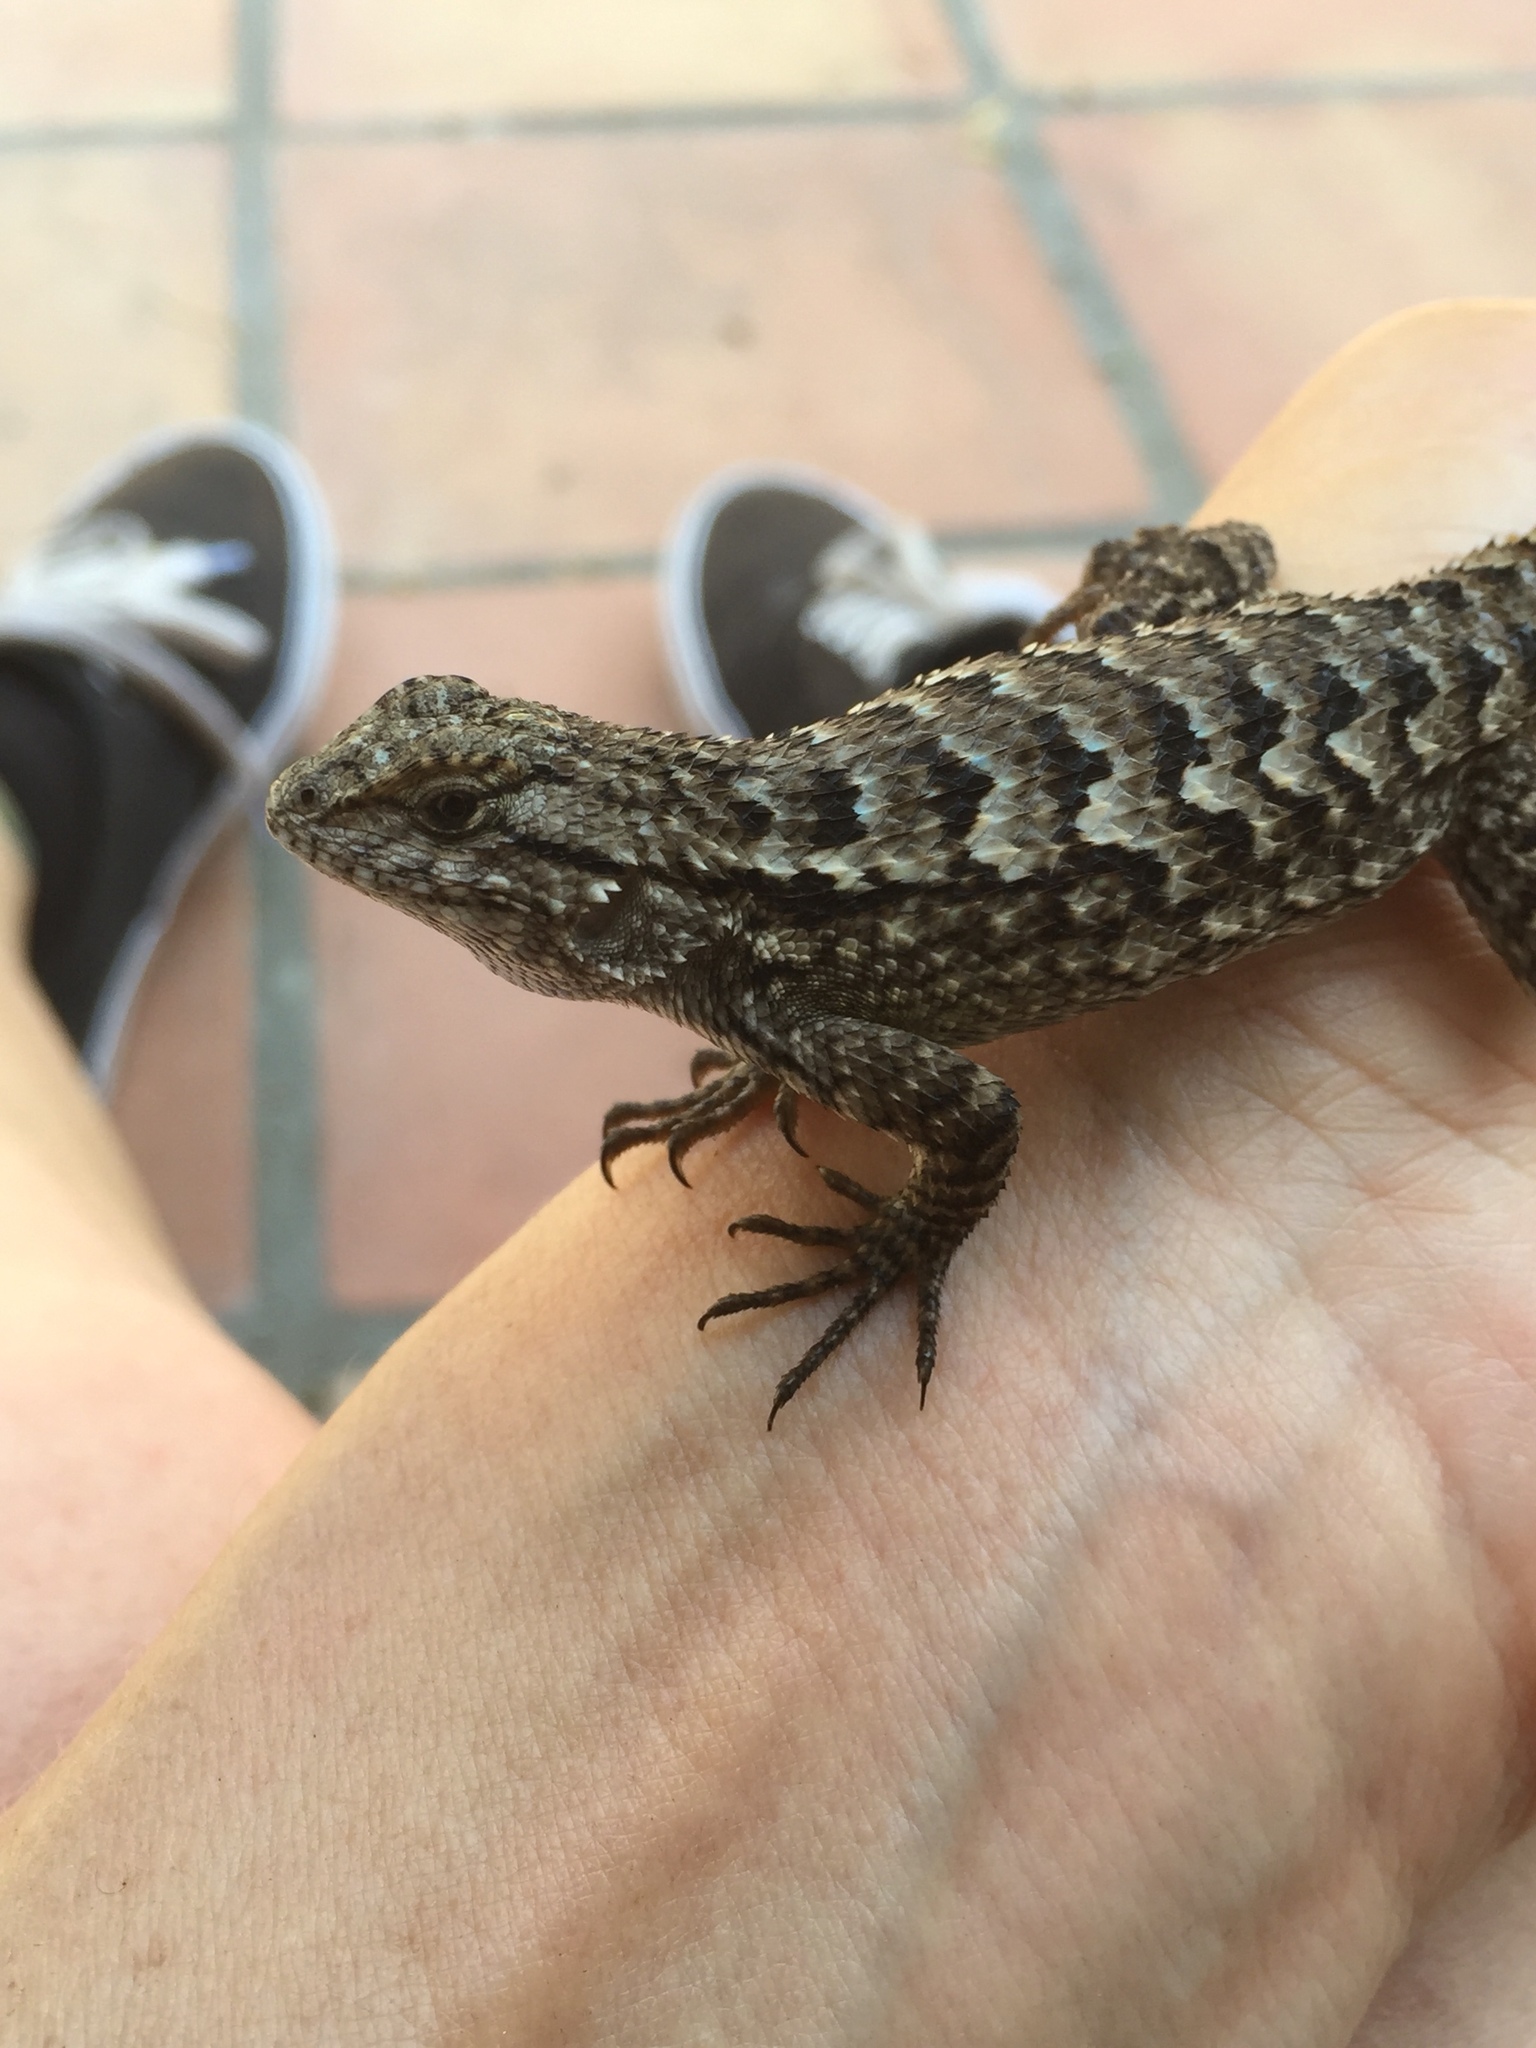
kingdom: Animalia
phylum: Chordata
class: Squamata
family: Phrynosomatidae
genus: Sceloporus
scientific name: Sceloporus occidentalis
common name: Western fence lizard
